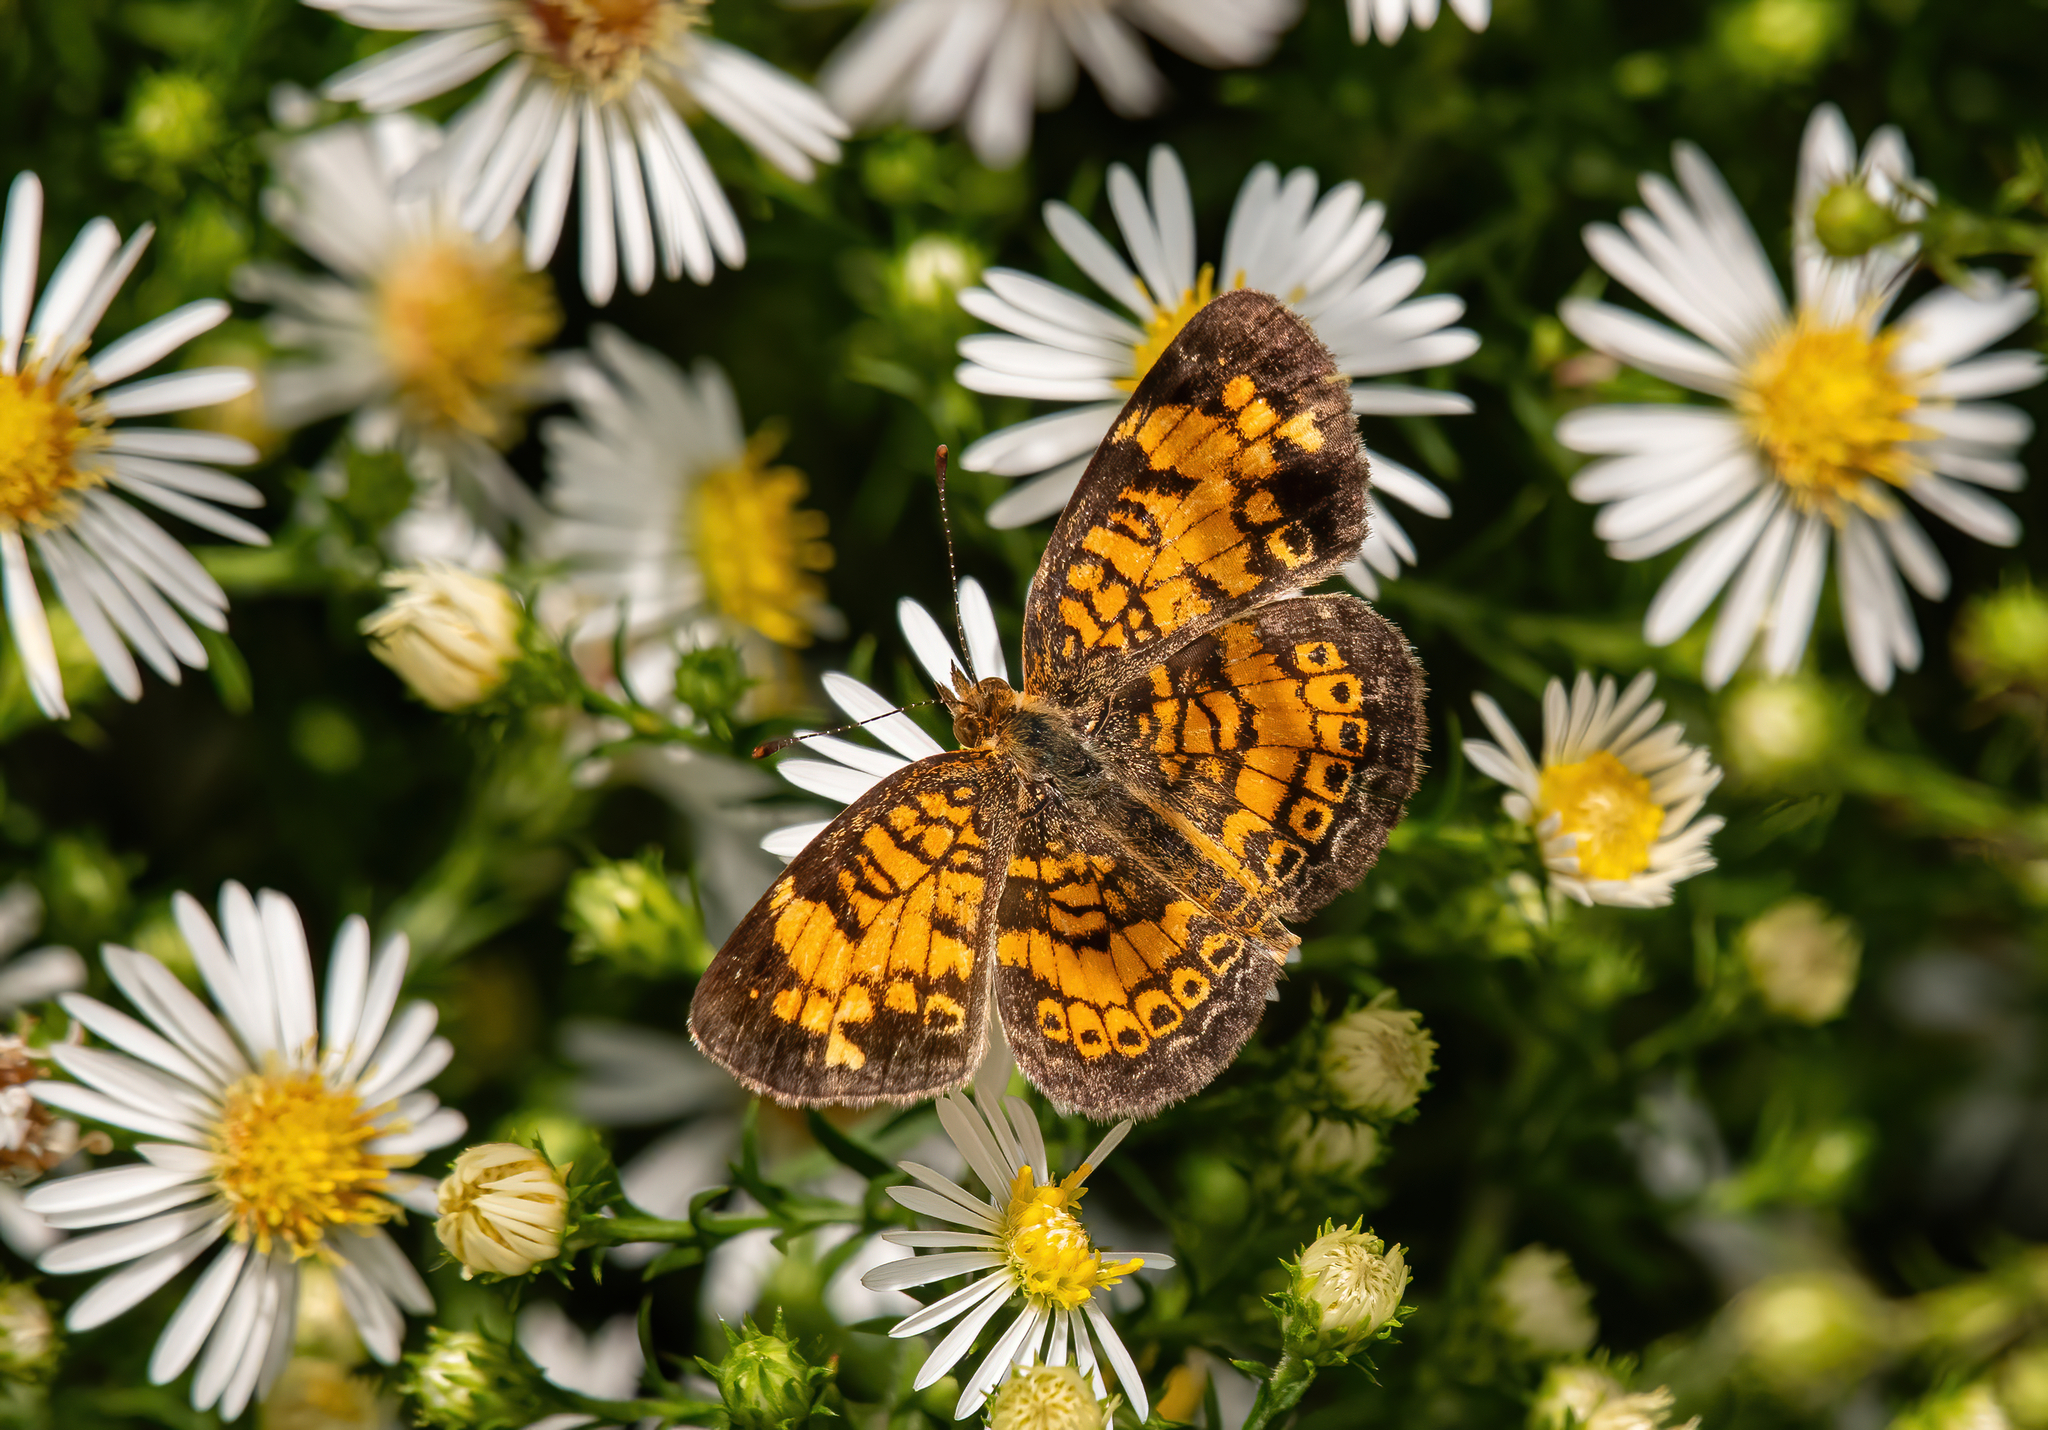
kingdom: Animalia
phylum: Arthropoda
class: Insecta
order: Lepidoptera
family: Nymphalidae
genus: Phyciodes
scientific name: Phyciodes tharos
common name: Pearl crescent
